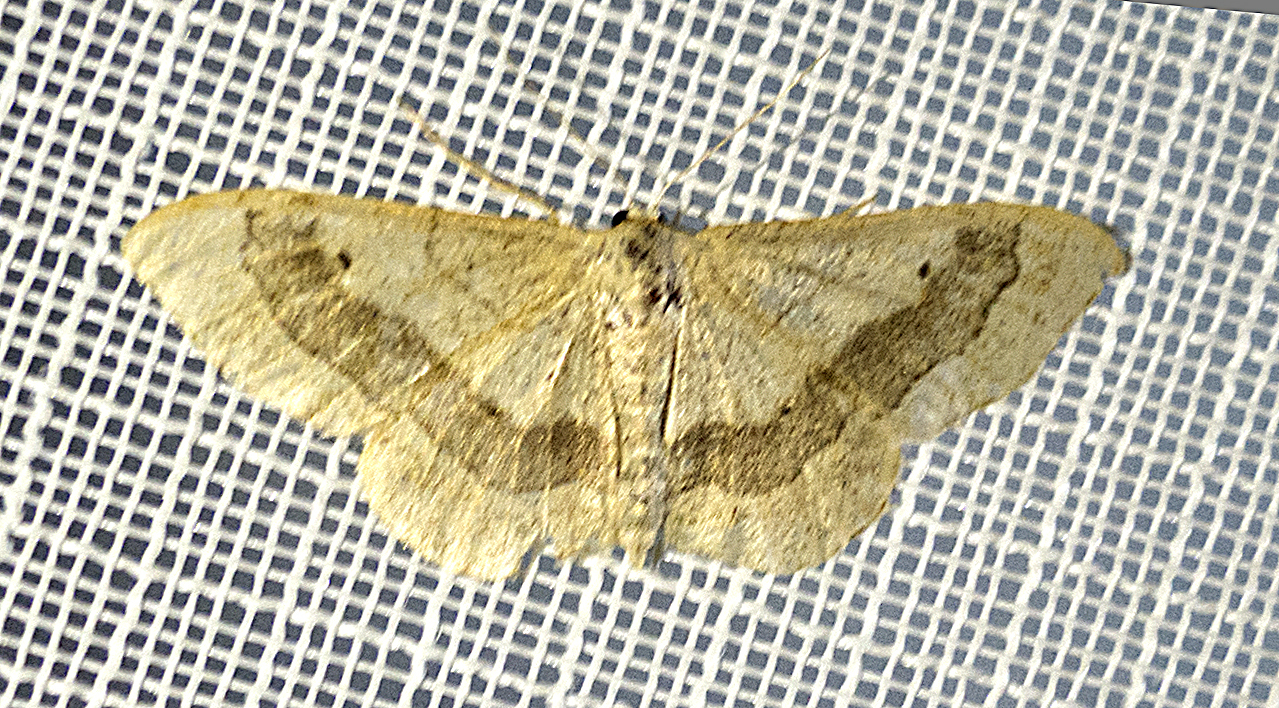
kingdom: Animalia
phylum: Arthropoda
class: Insecta
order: Lepidoptera
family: Geometridae
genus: Idaea
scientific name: Idaea aversata
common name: Riband wave
